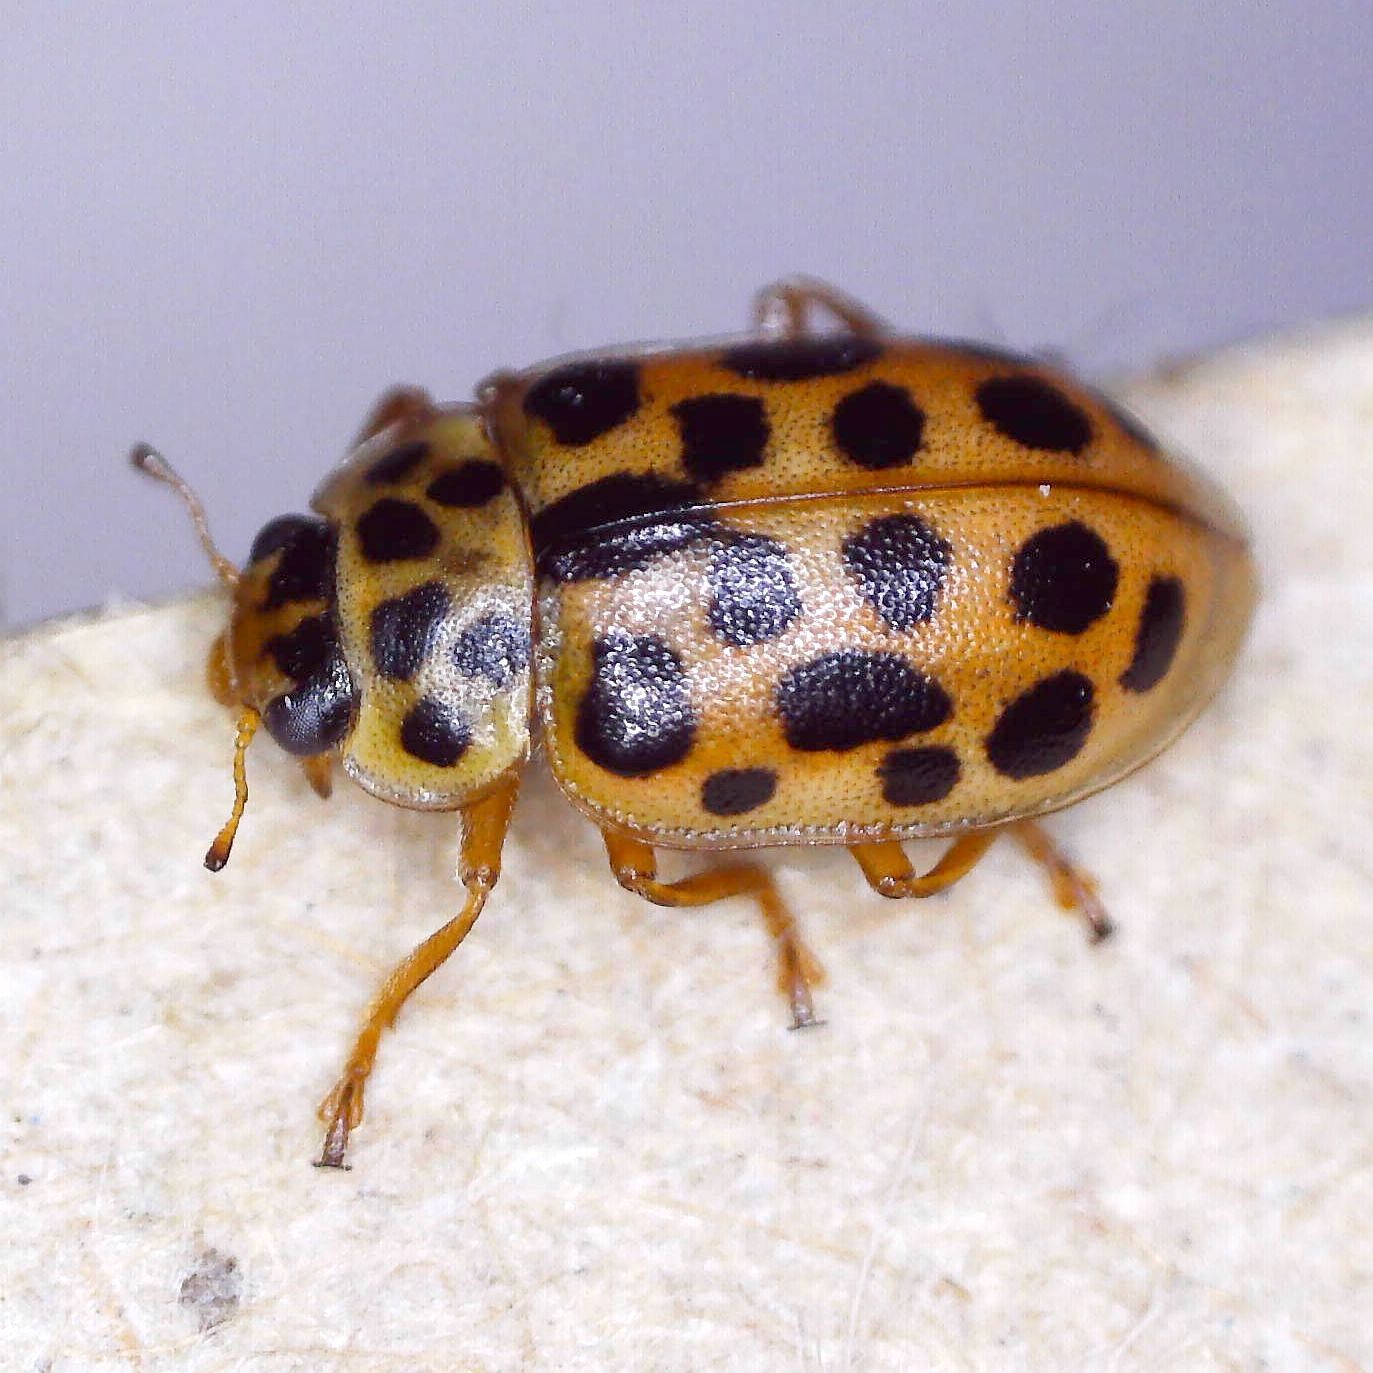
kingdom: Animalia
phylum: Arthropoda
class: Insecta
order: Coleoptera
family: Coccinellidae
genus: Anisosticta
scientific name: Anisosticta novemdecimpunctata
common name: Water ladybird
